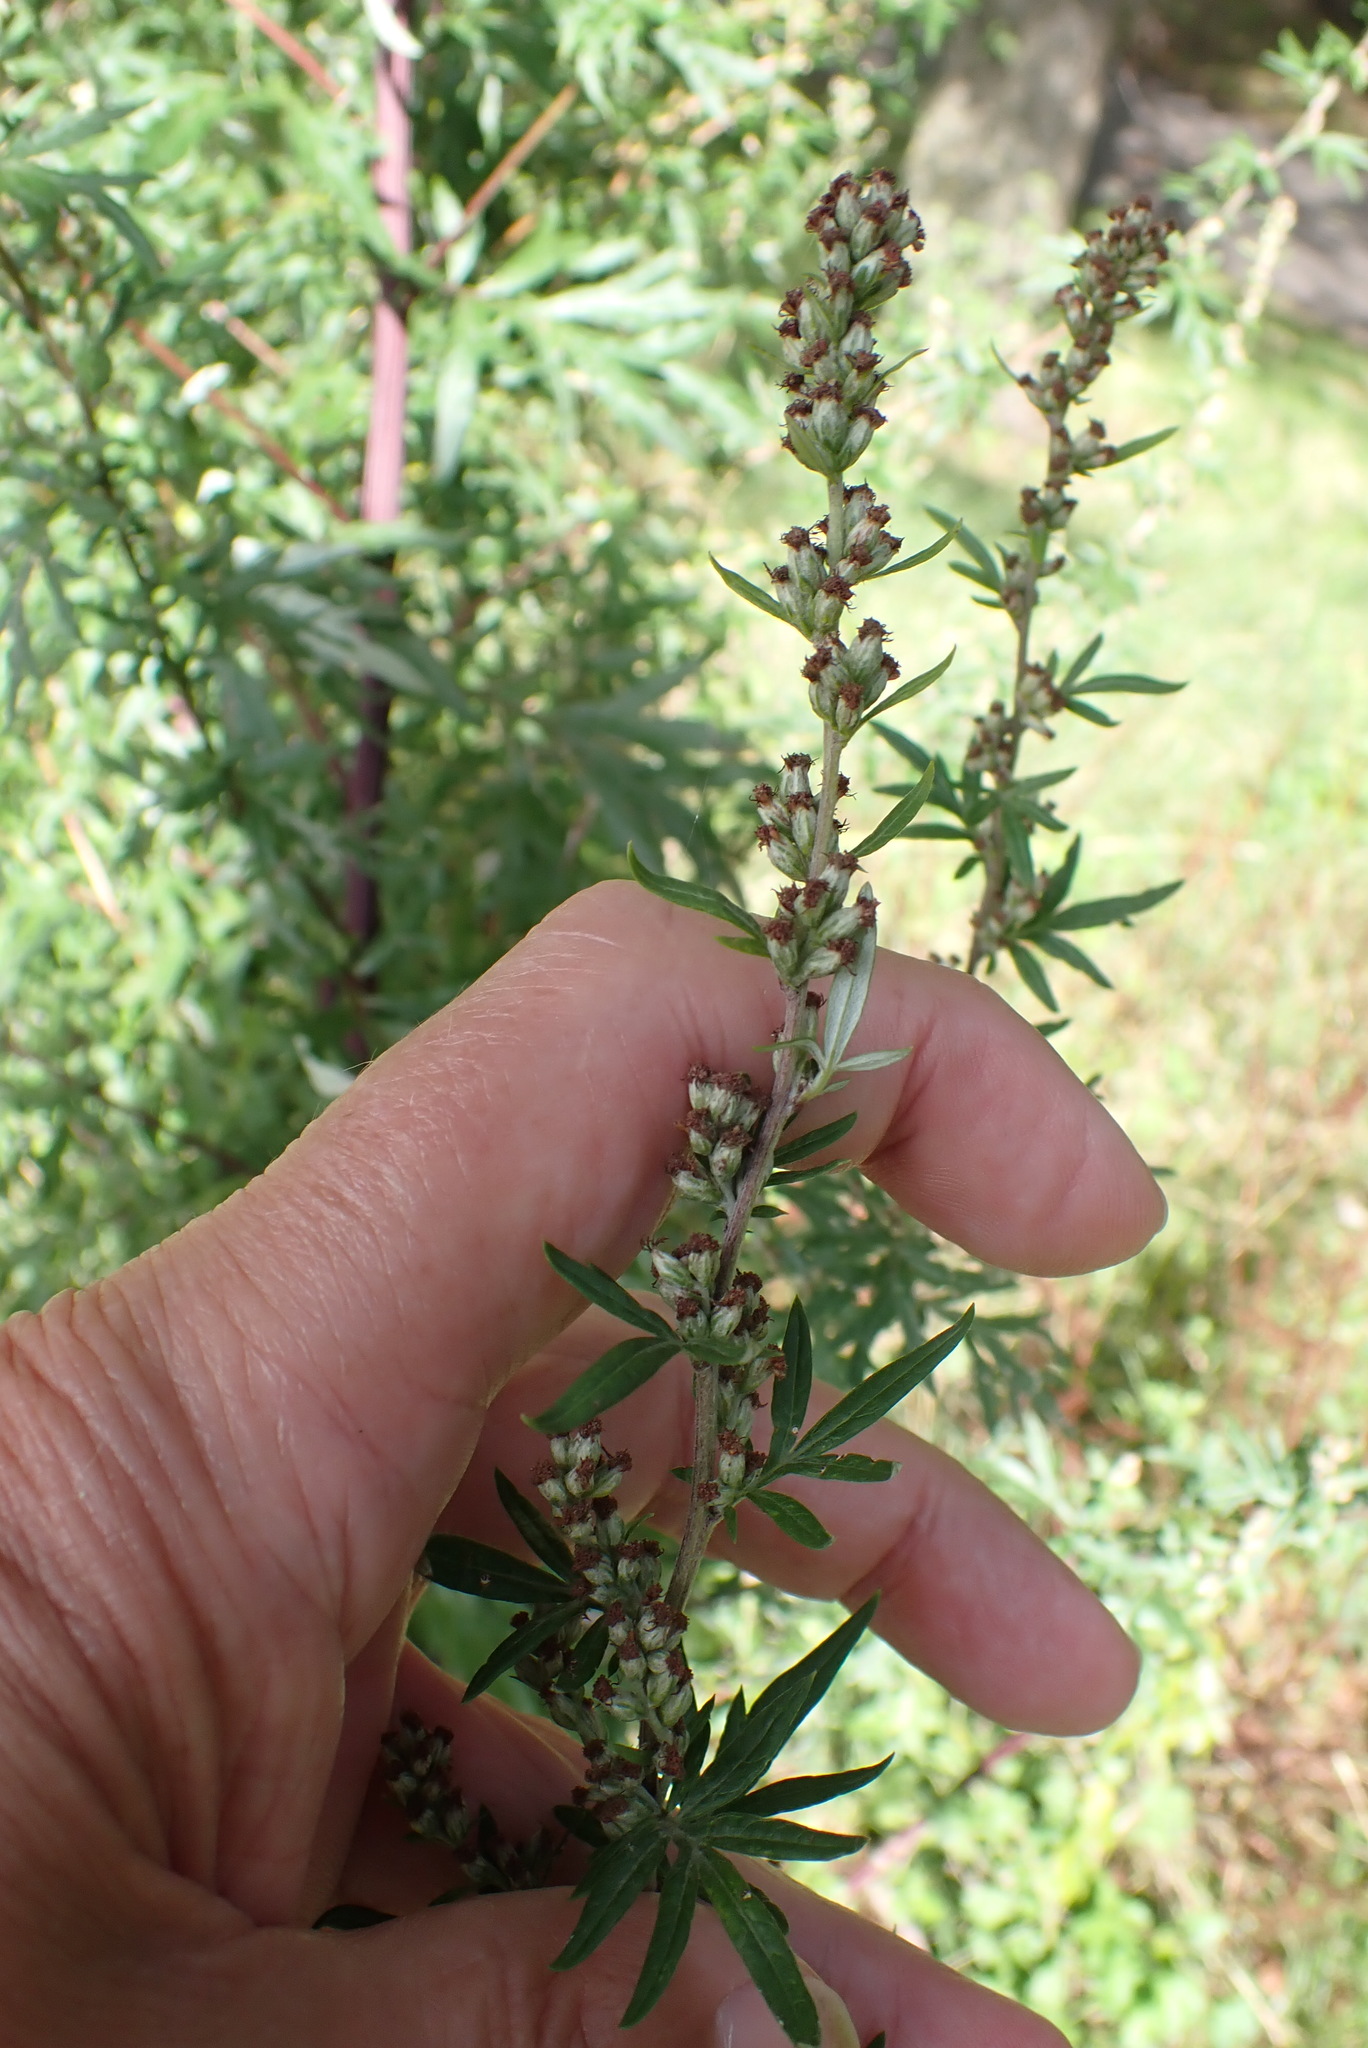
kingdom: Plantae
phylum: Tracheophyta
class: Magnoliopsida
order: Asterales
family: Asteraceae
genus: Artemisia
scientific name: Artemisia vulgaris
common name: Mugwort
